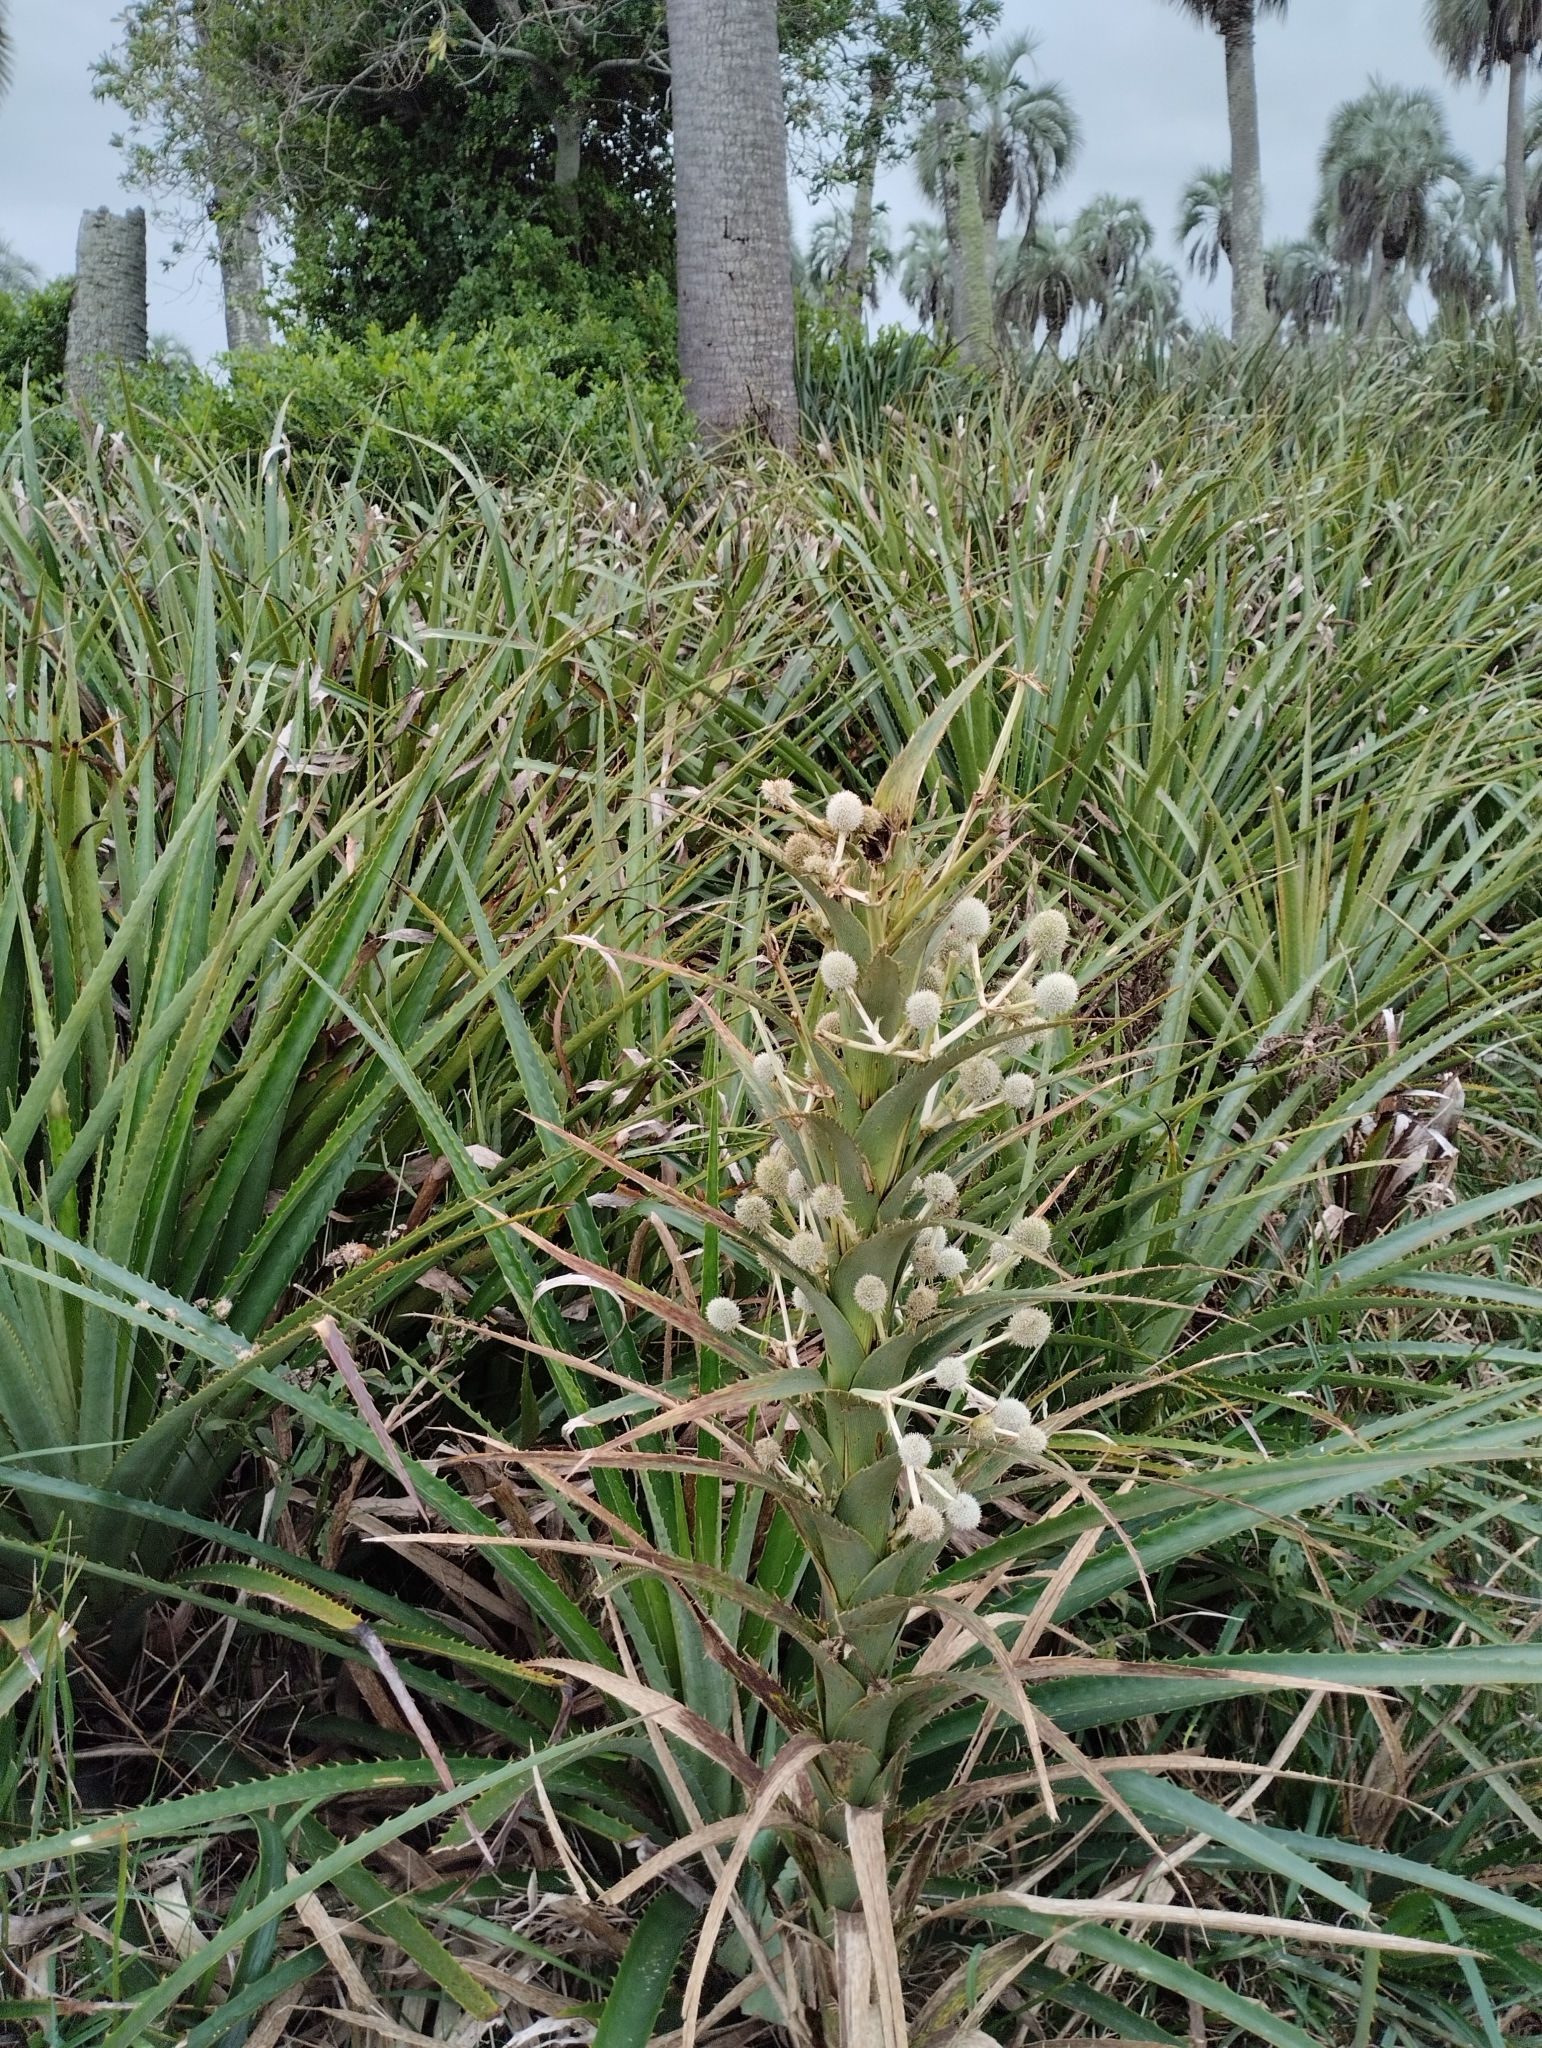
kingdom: Plantae
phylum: Tracheophyta
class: Magnoliopsida
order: Apiales
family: Apiaceae
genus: Eryngium
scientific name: Eryngium eburneum
